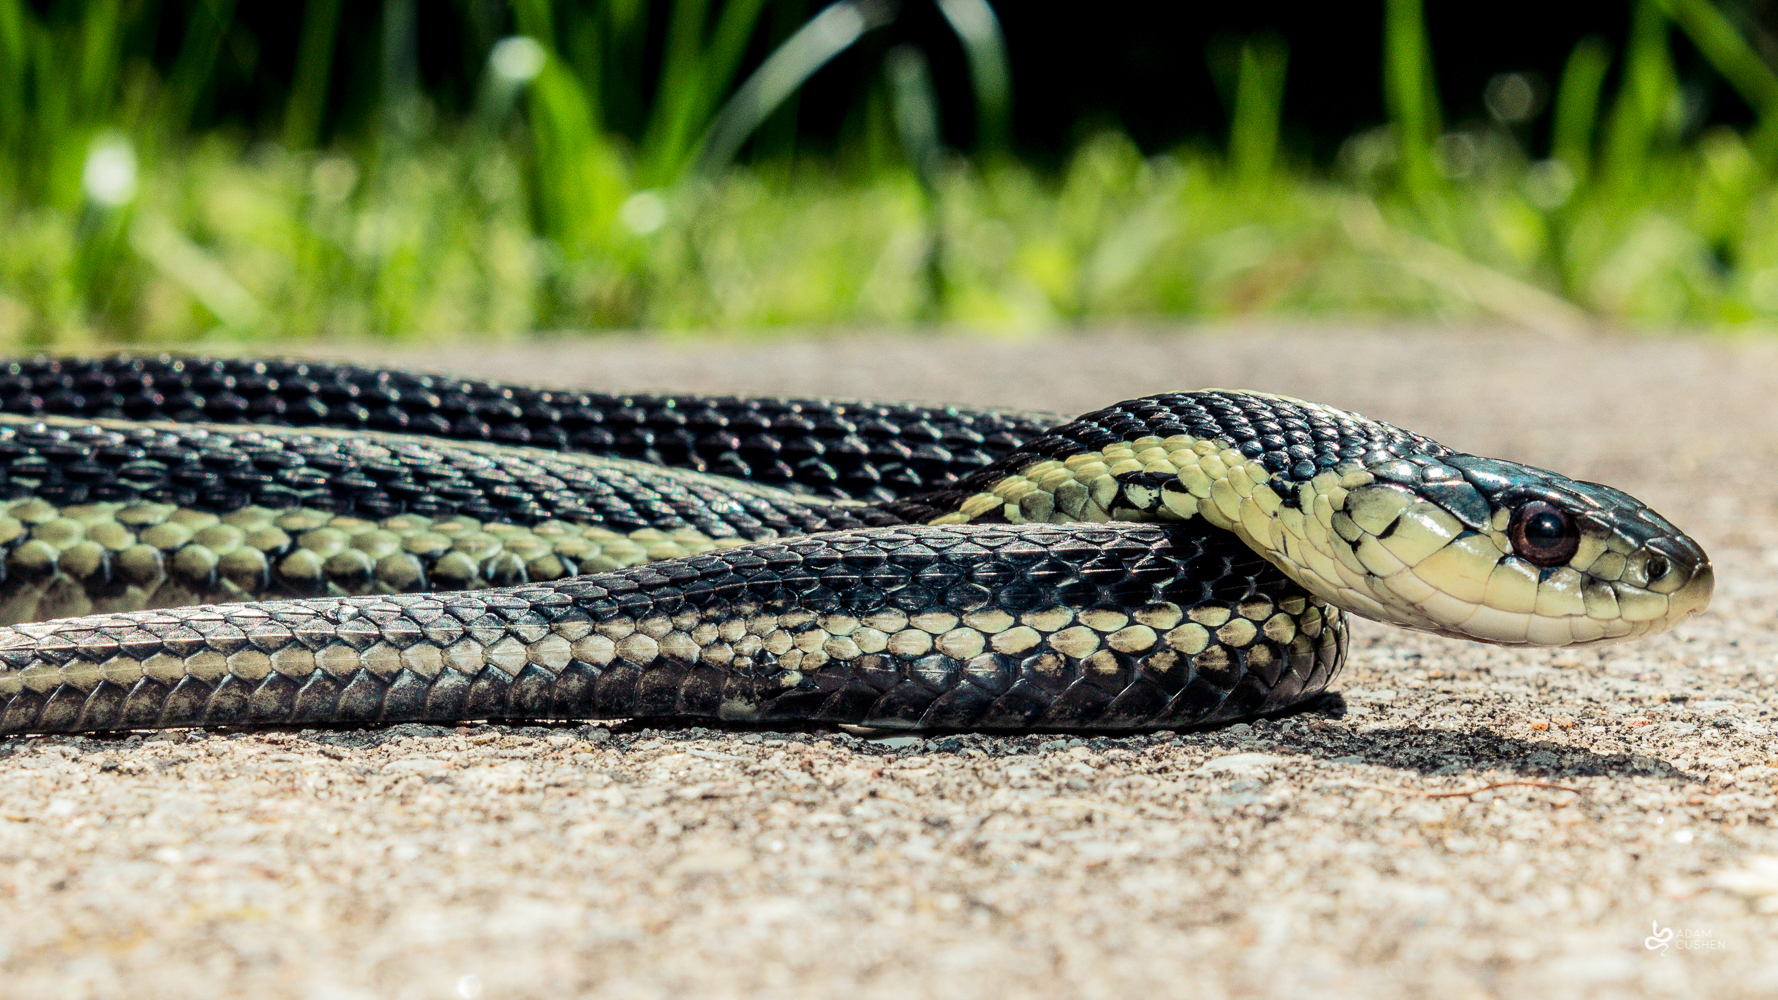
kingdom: Animalia
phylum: Chordata
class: Squamata
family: Colubridae
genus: Thamnophis
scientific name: Thamnophis sirtalis
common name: Common garter snake
